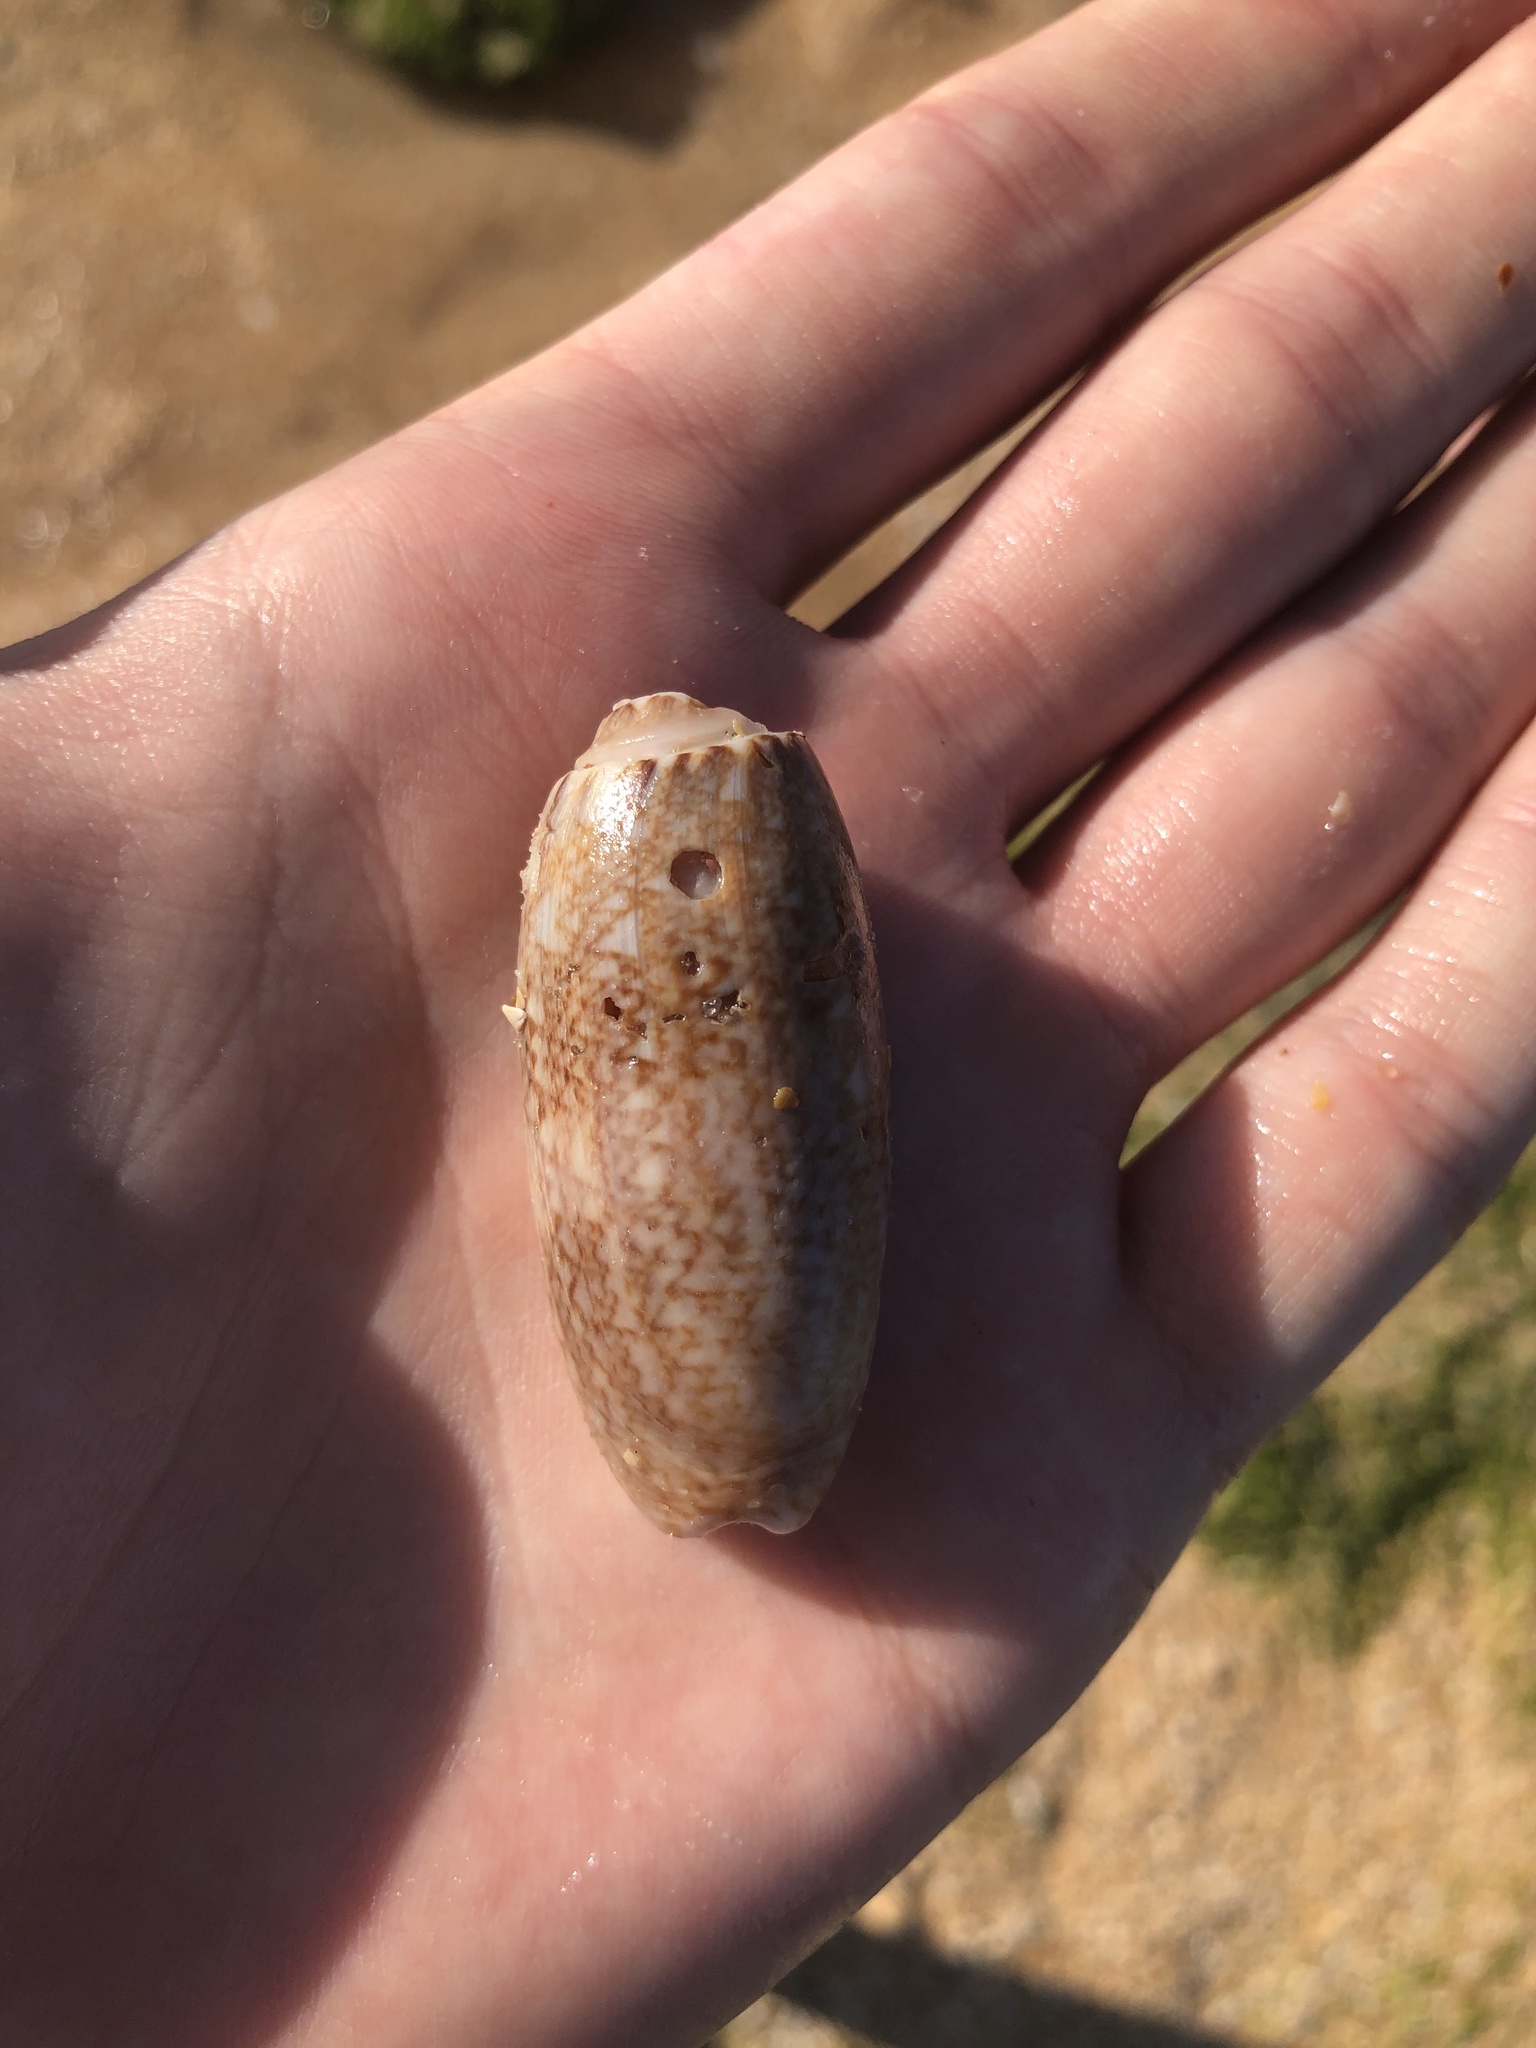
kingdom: Animalia
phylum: Mollusca
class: Gastropoda
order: Neogastropoda
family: Olividae
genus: Oliva
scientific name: Oliva sayana
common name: Lettered olive
